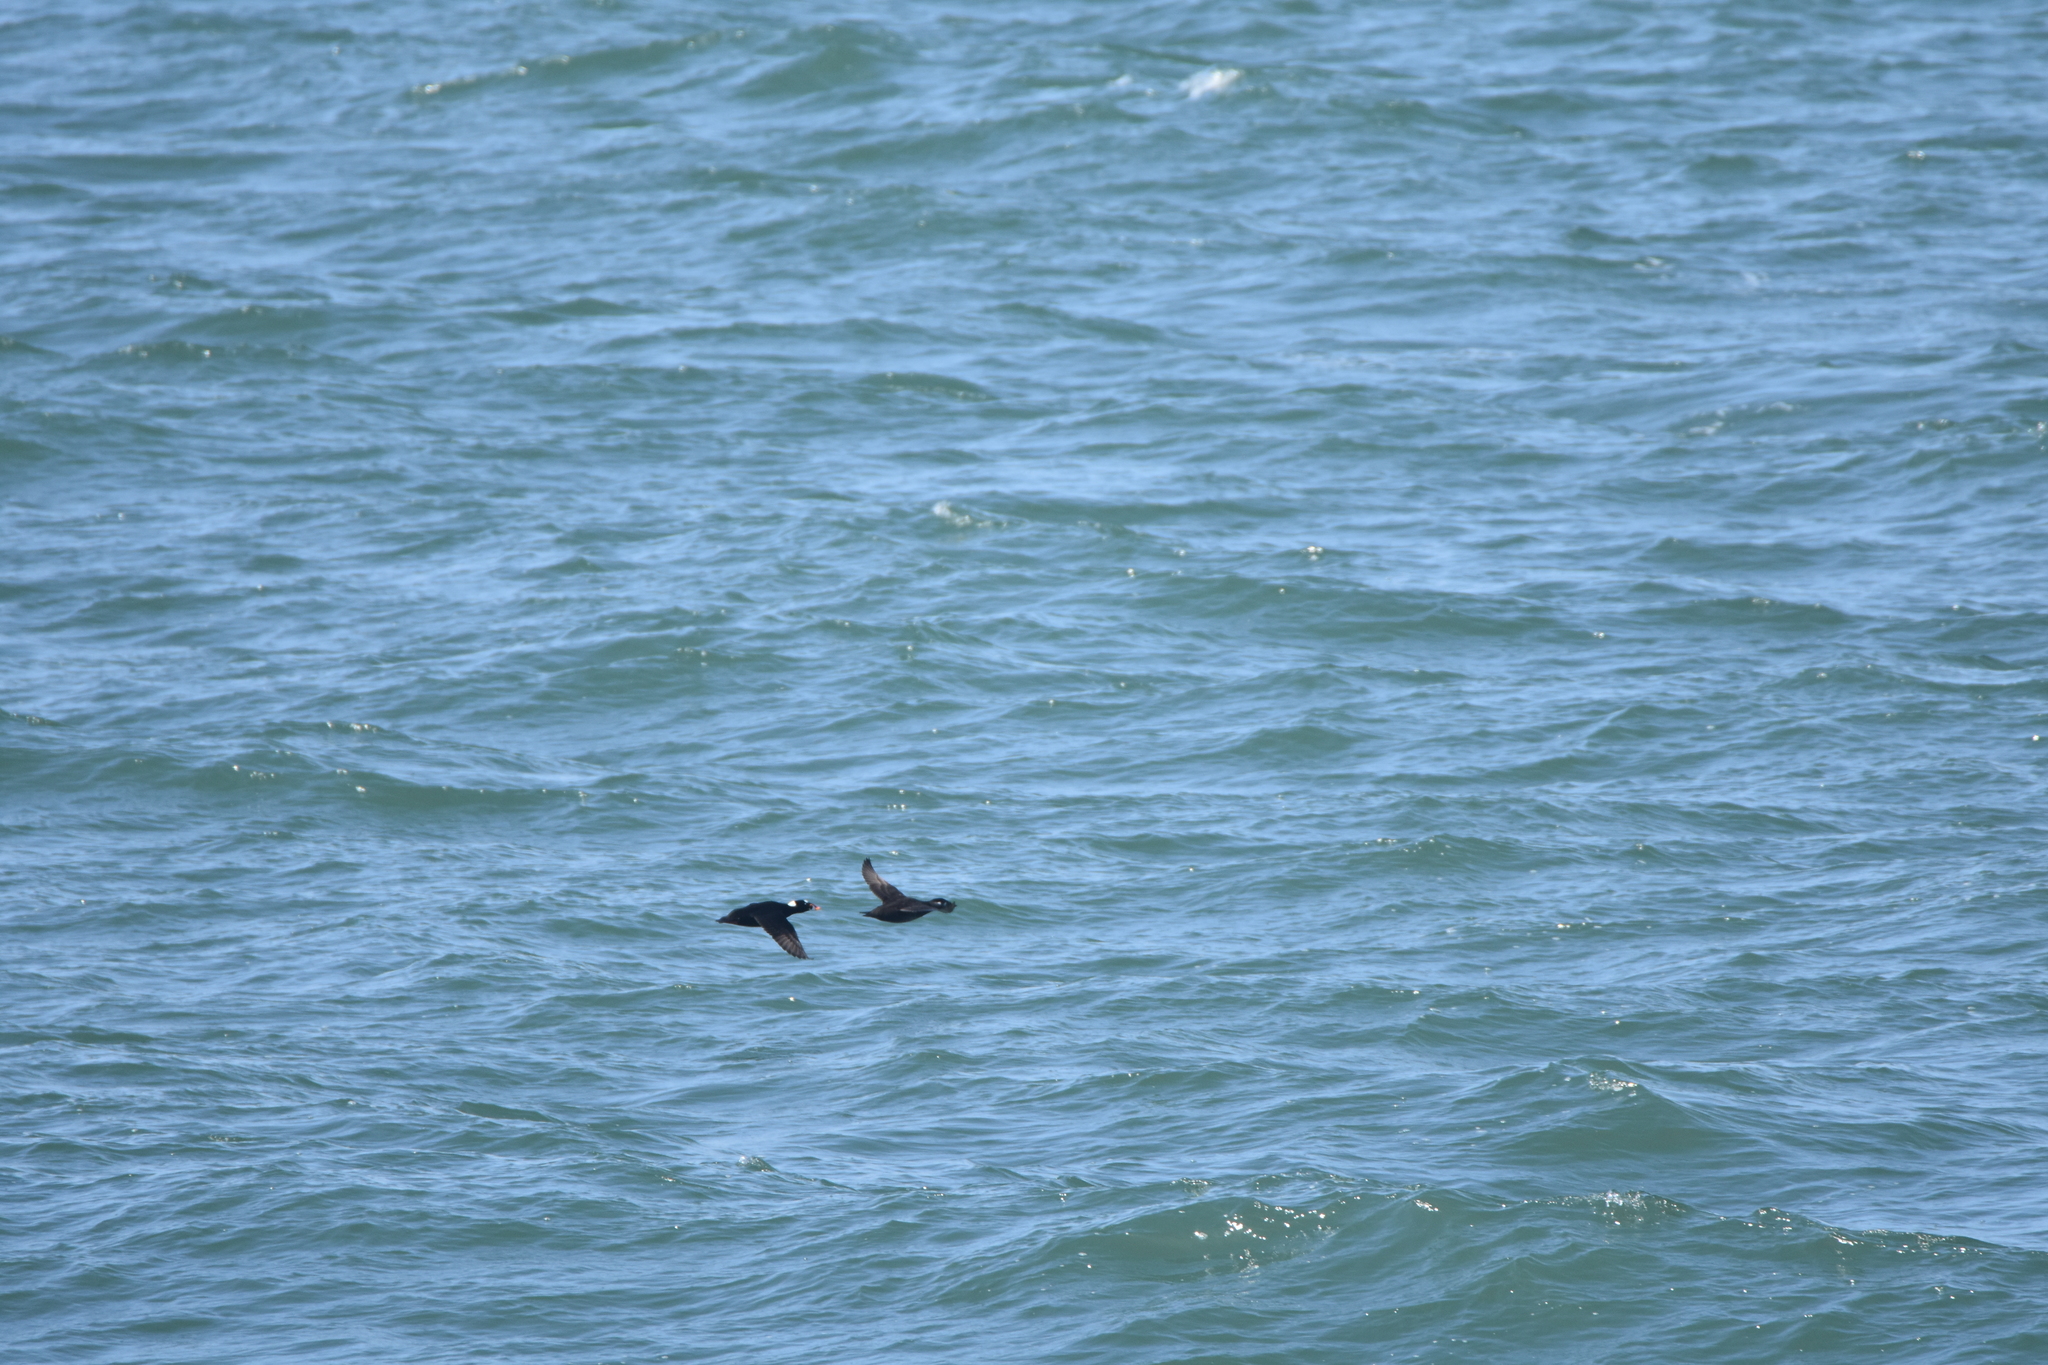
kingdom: Animalia
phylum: Chordata
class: Aves
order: Anseriformes
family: Anatidae
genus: Melanitta
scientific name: Melanitta perspicillata
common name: Surf scoter
